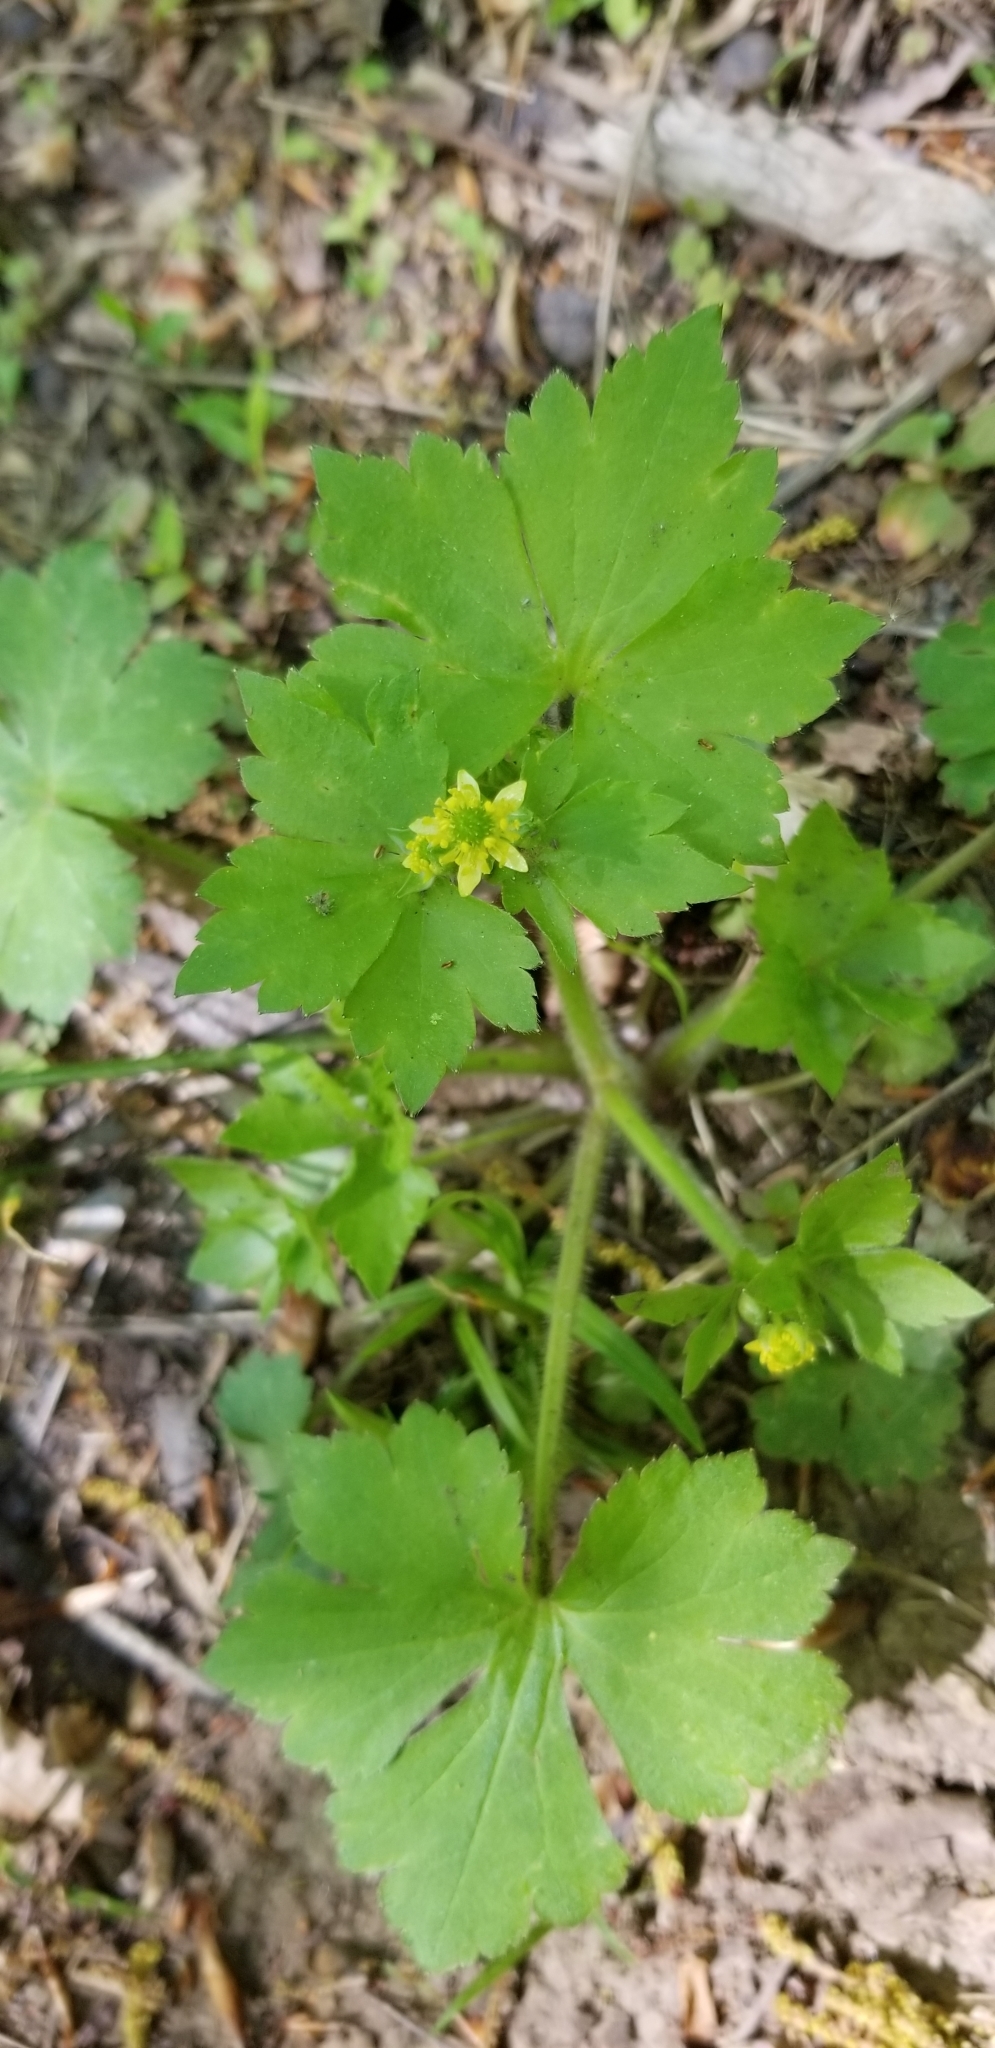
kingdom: Plantae
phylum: Tracheophyta
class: Magnoliopsida
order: Ranunculales
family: Ranunculaceae
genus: Ranunculus
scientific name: Ranunculus recurvatus
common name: Blisterwort
